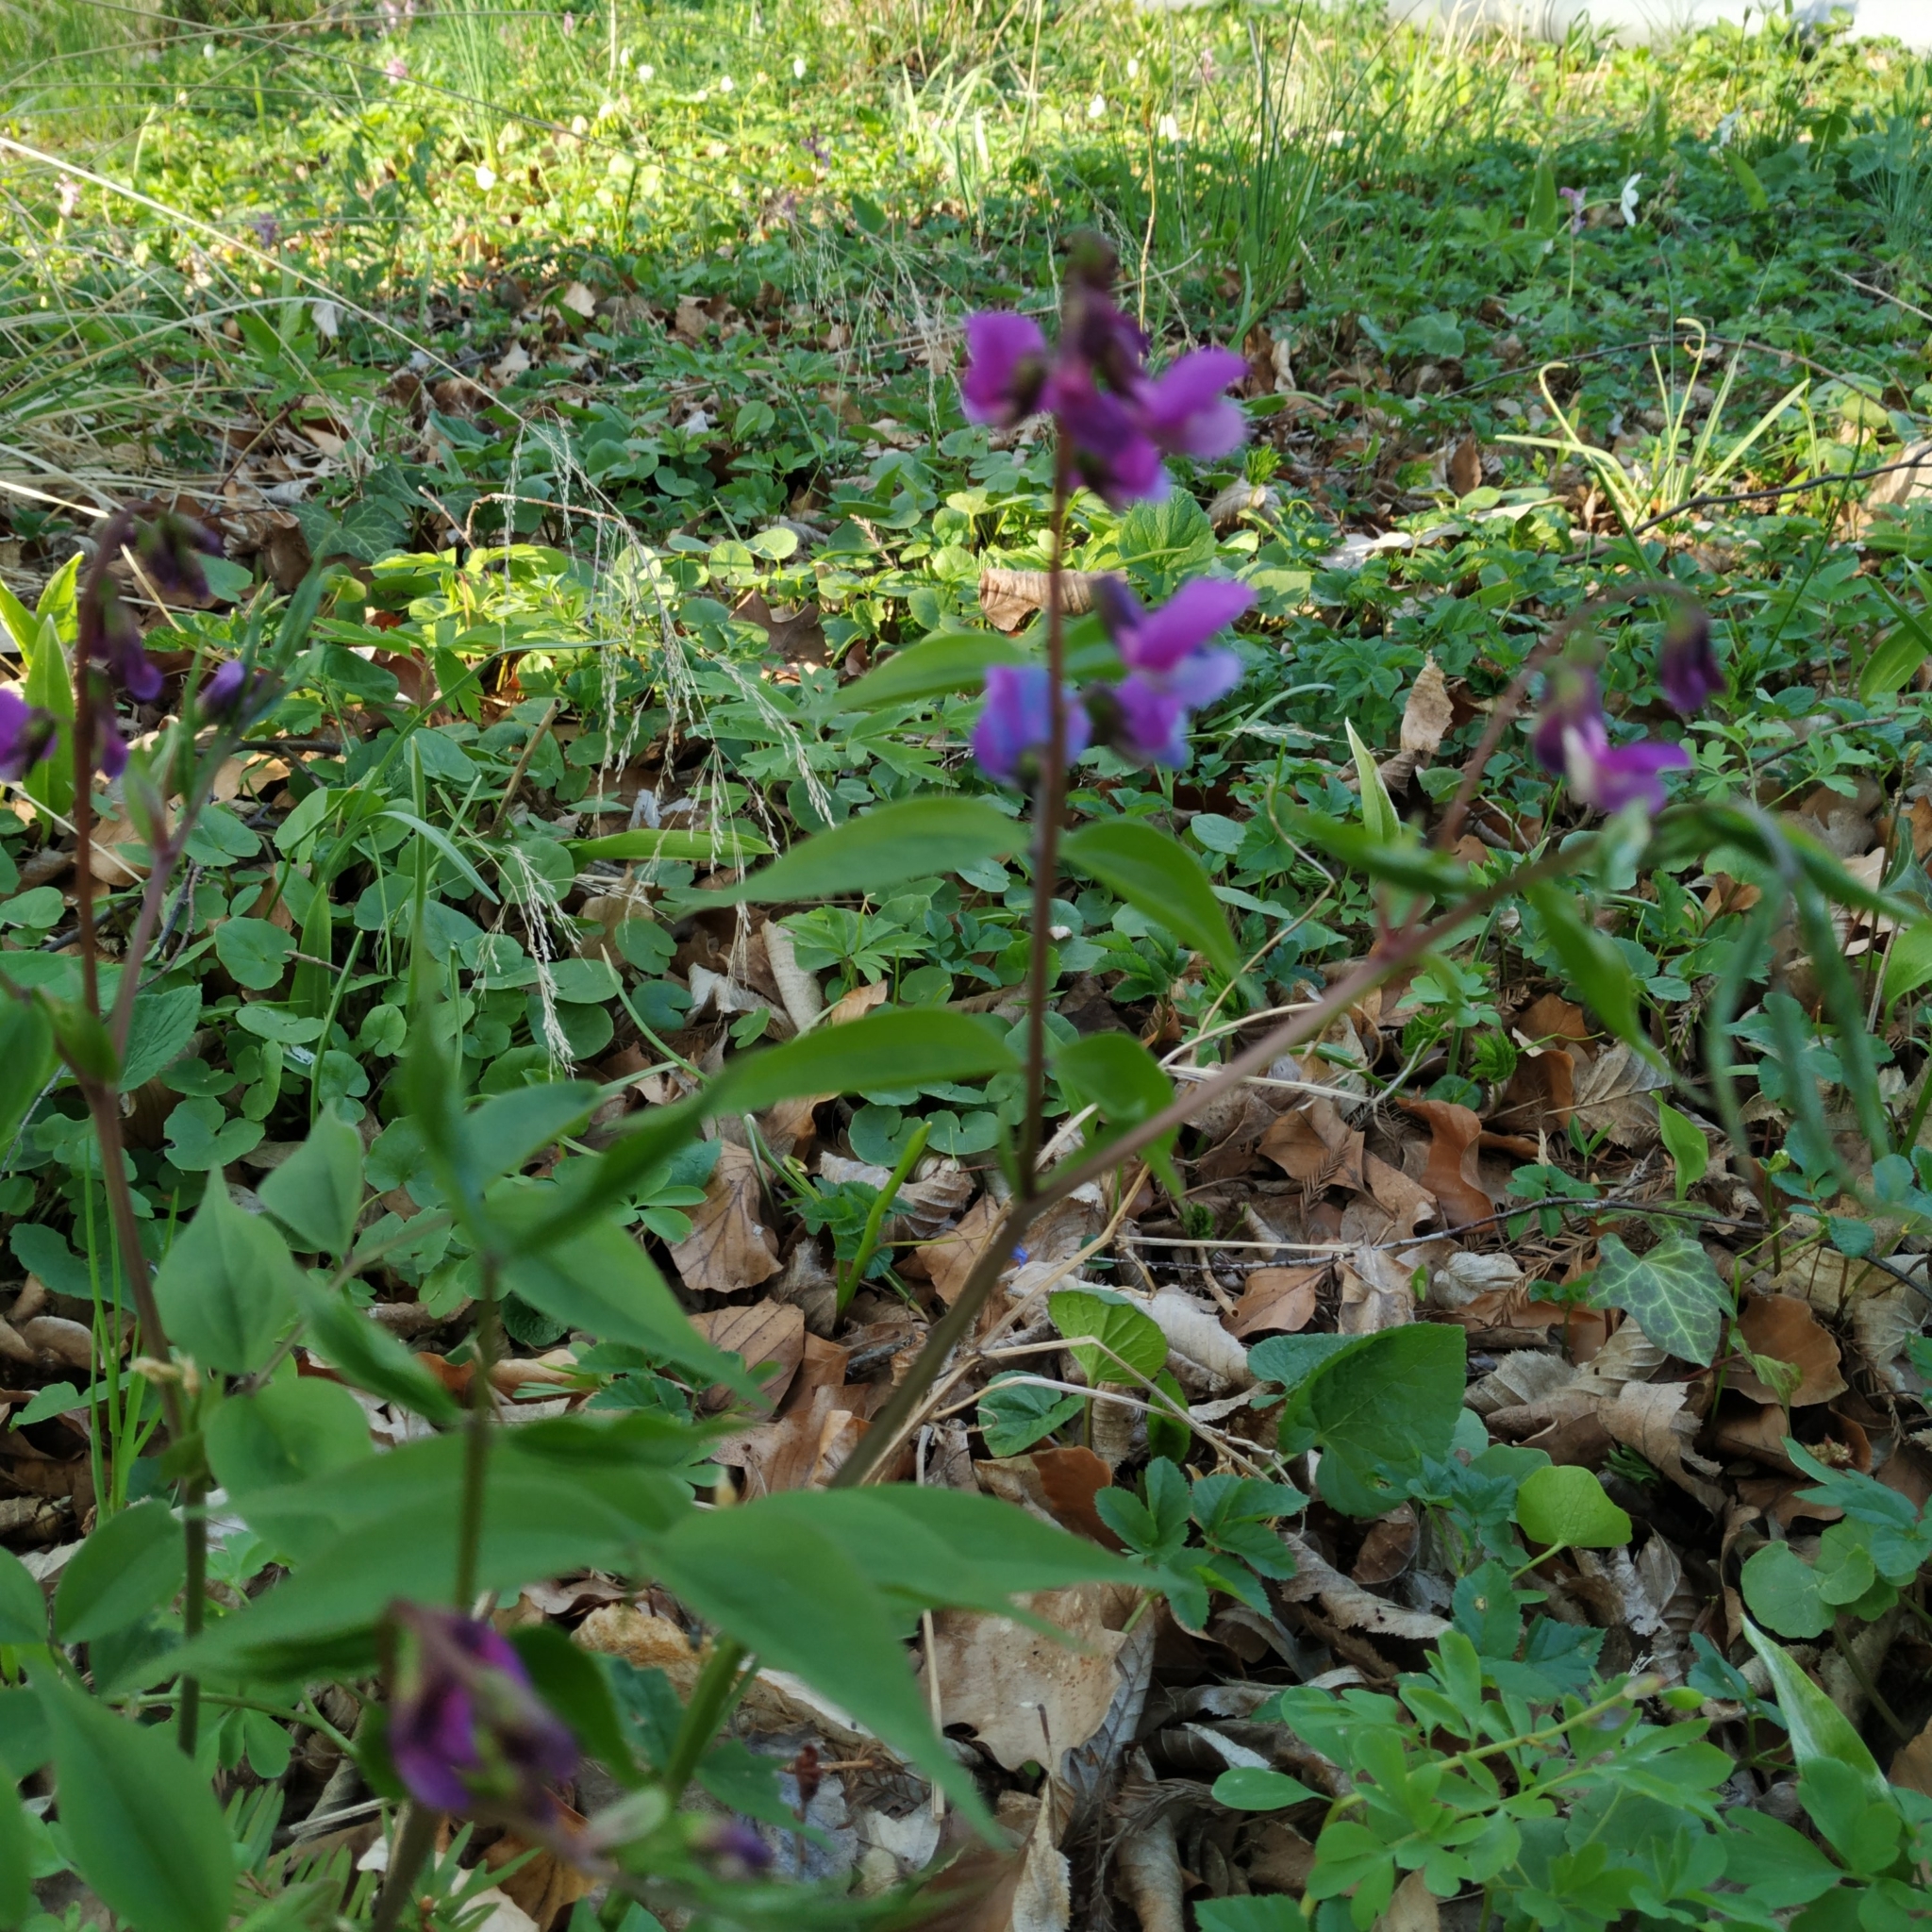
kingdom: Plantae
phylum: Tracheophyta
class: Magnoliopsida
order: Fabales
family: Fabaceae
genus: Lathyrus
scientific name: Lathyrus vernus
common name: Spring pea
